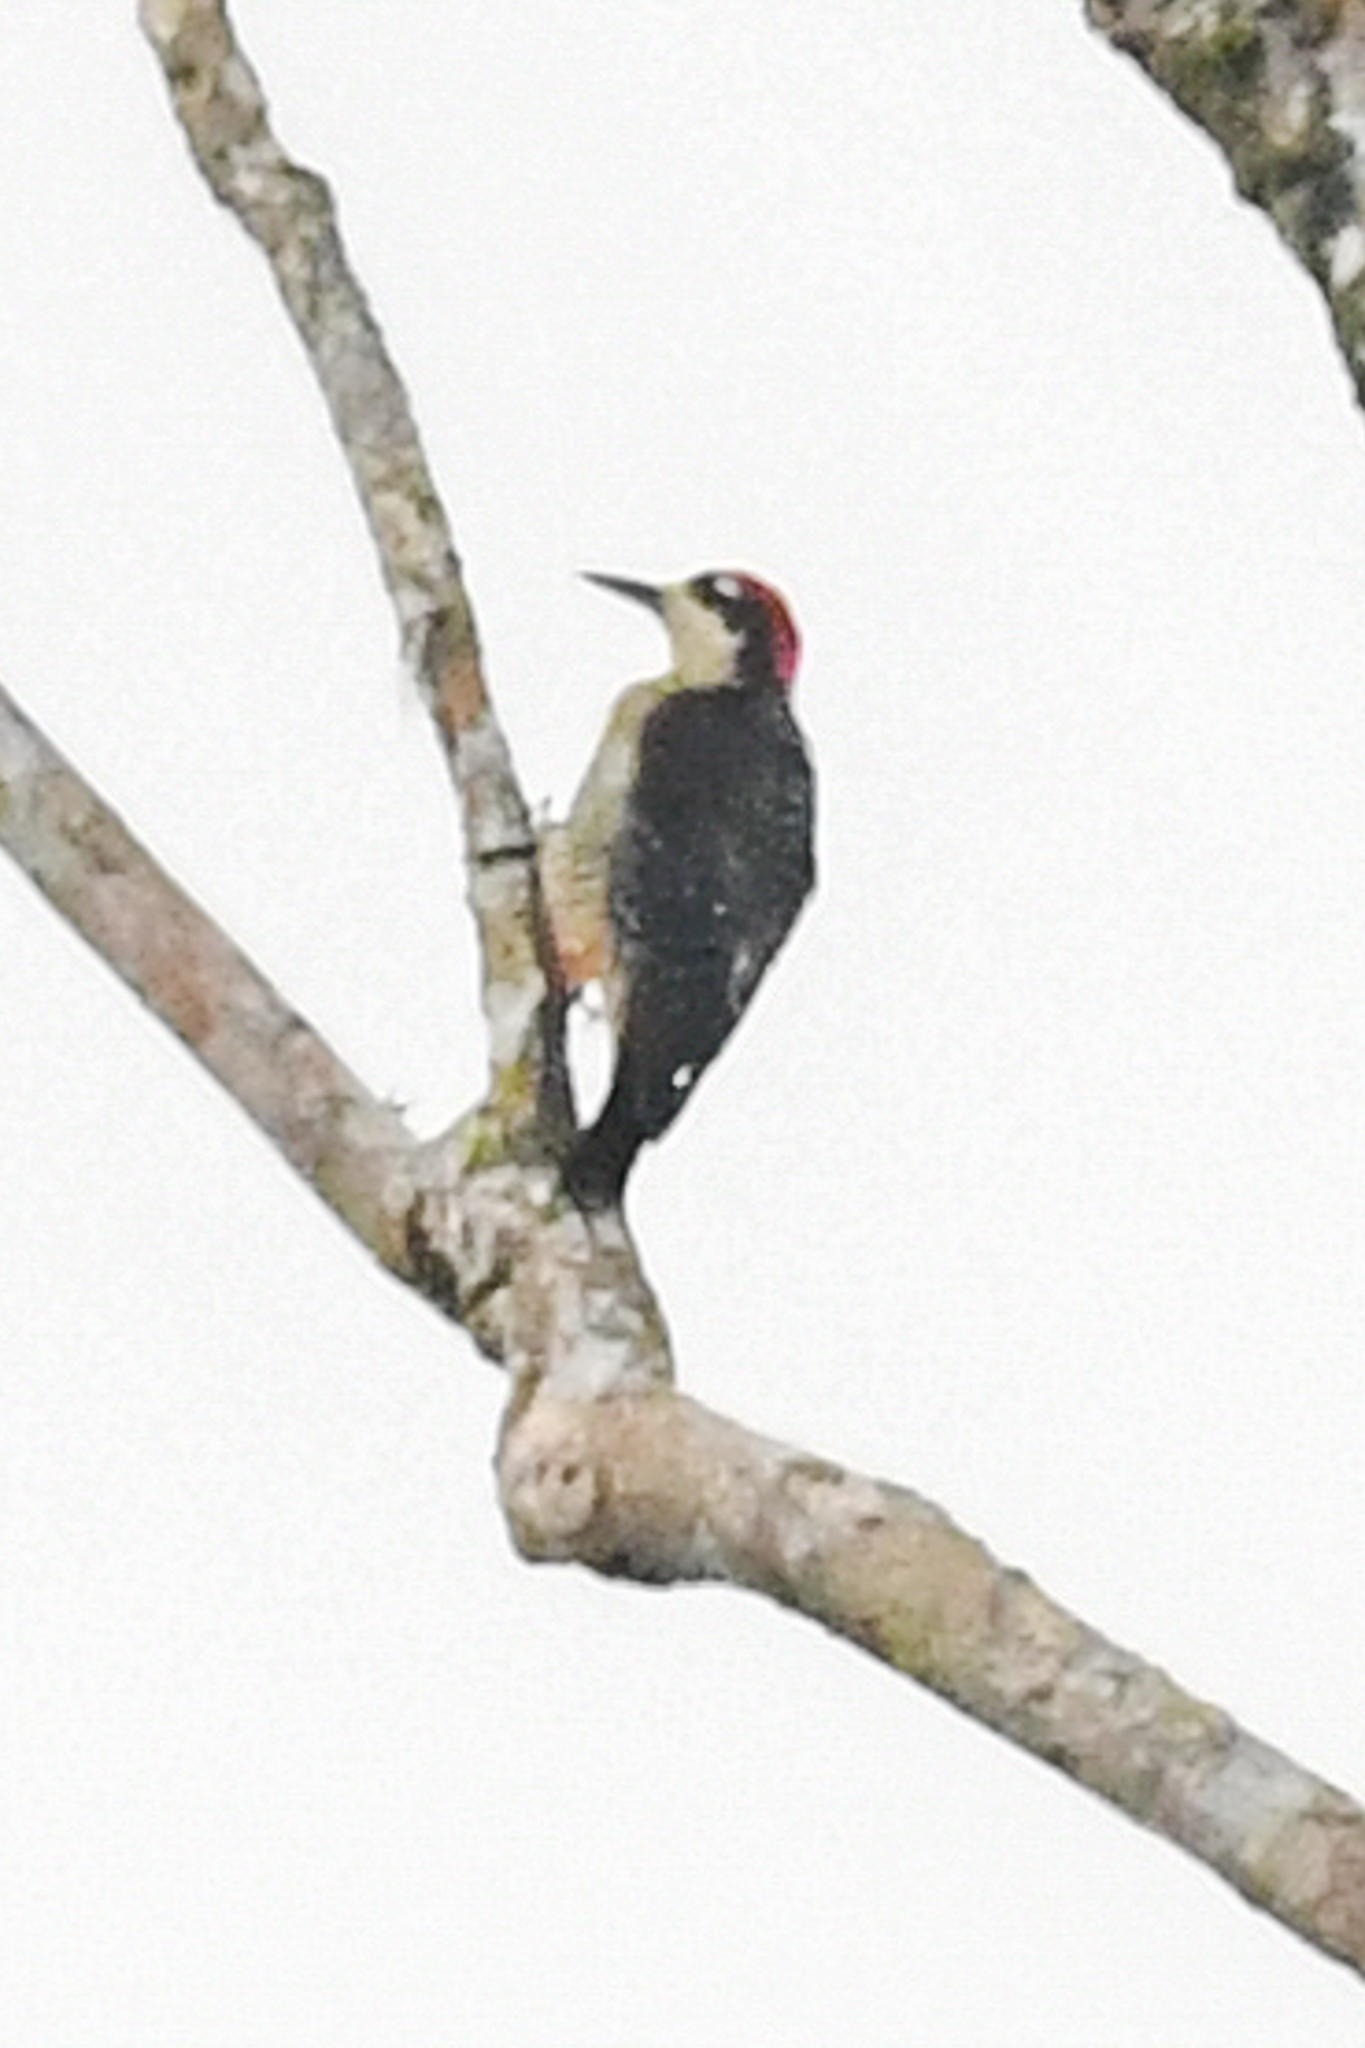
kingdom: Animalia
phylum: Chordata
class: Aves
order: Piciformes
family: Picidae
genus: Melanerpes
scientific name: Melanerpes pucherani
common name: Black-cheeked woodpecker
